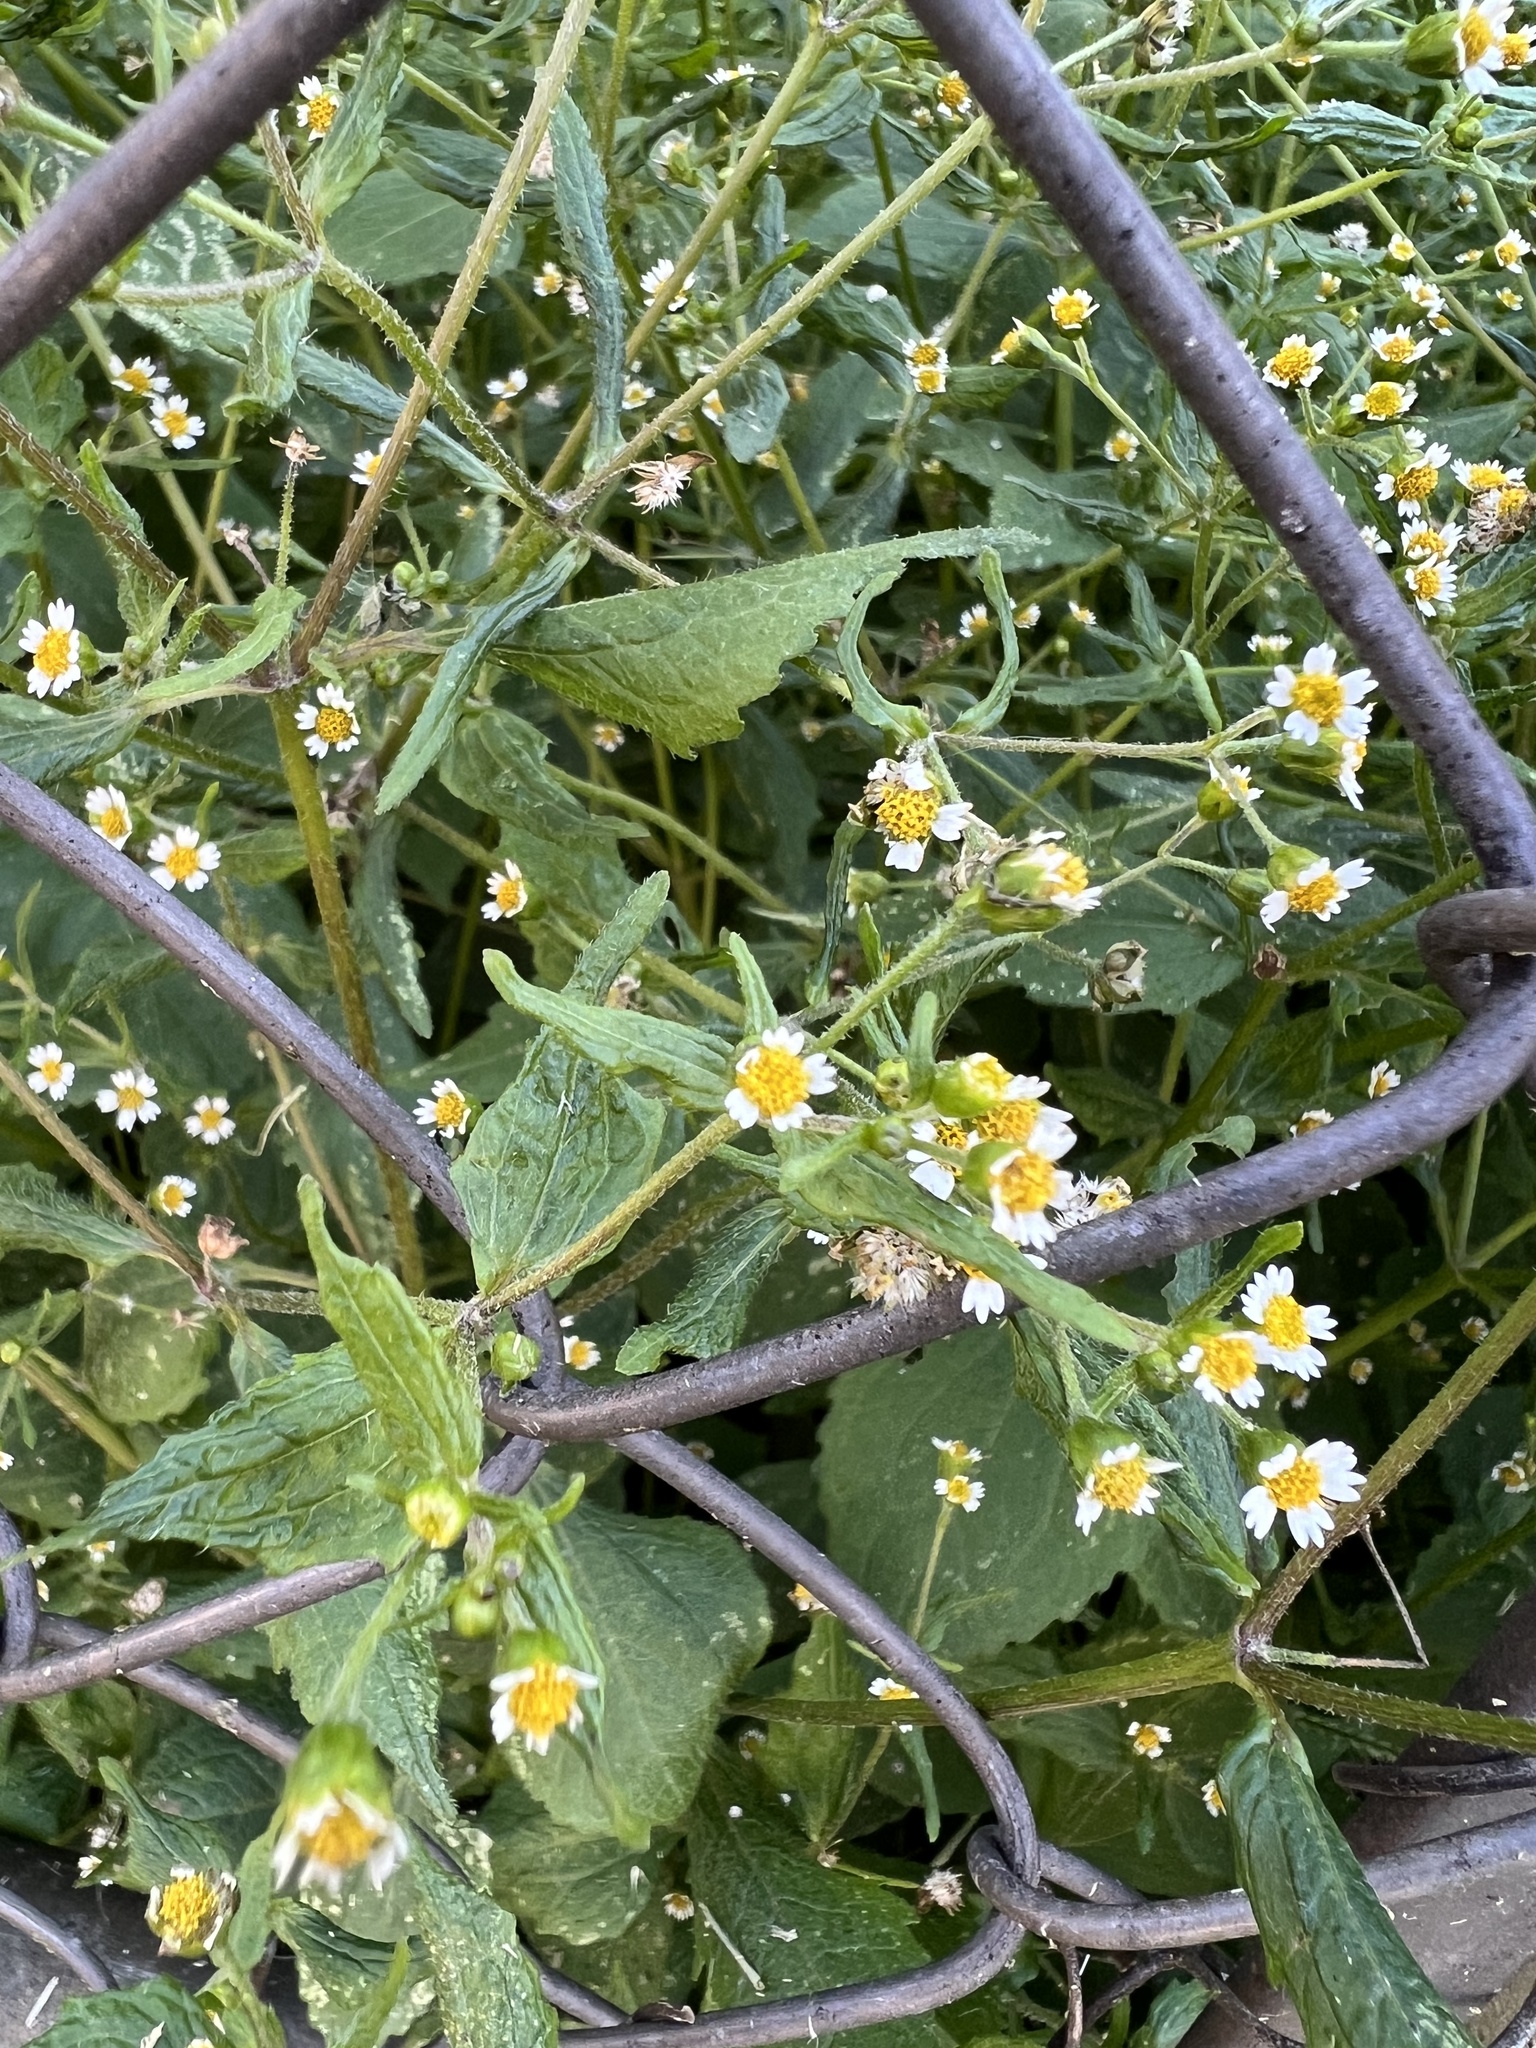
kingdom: Plantae
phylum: Tracheophyta
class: Magnoliopsida
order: Asterales
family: Asteraceae
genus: Galinsoga
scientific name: Galinsoga quadriradiata
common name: Shaggy soldier
